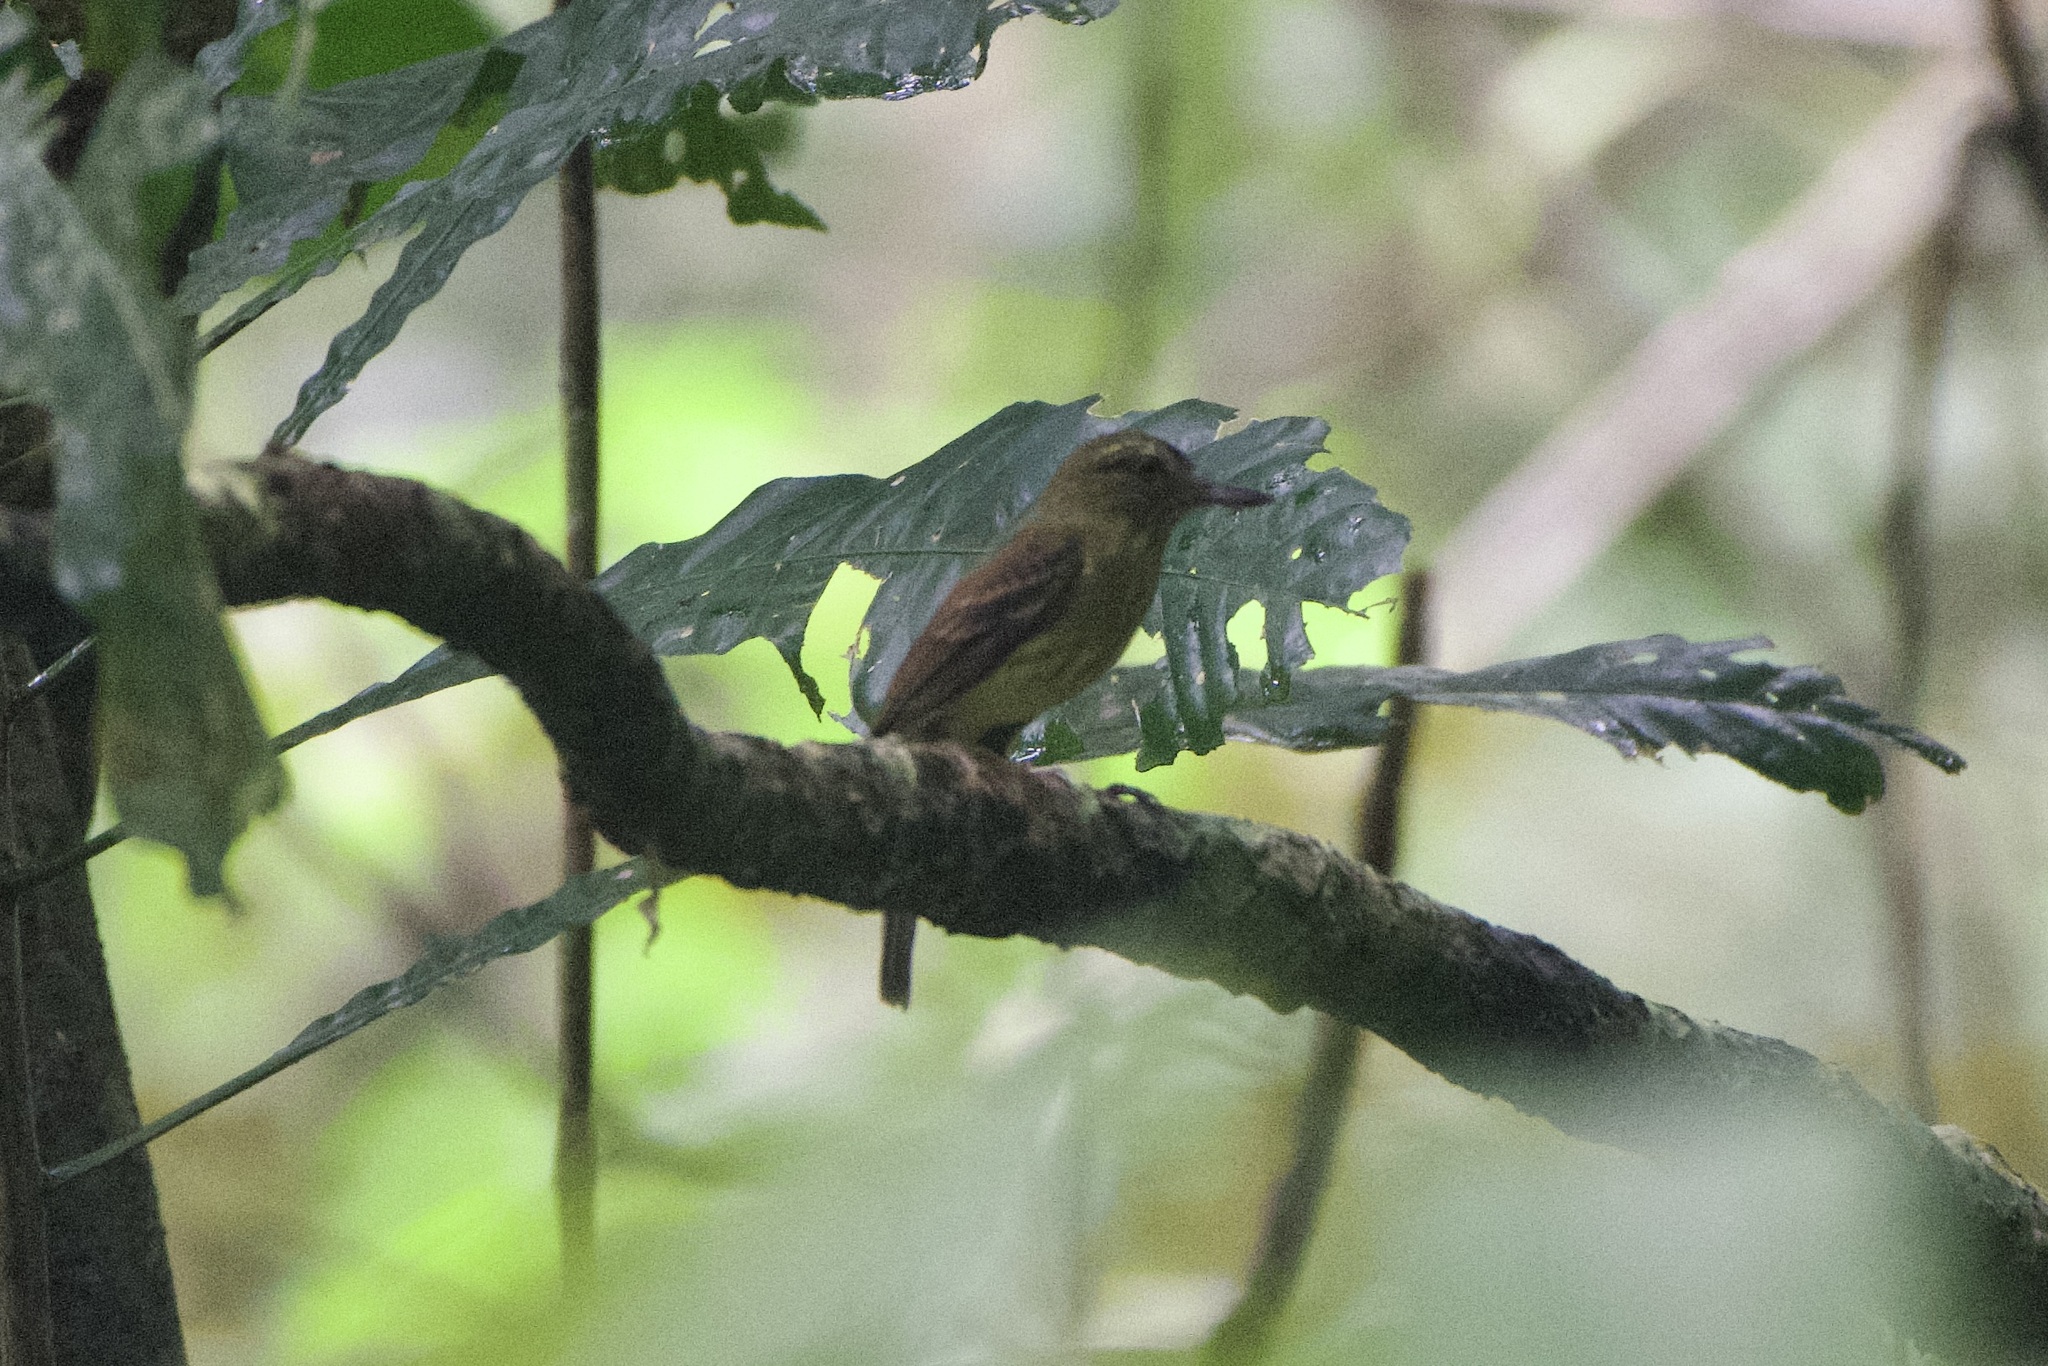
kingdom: Animalia
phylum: Chordata
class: Aves
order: Passeriformes
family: Tyrannidae
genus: Attila
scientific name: Attila spadiceus
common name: Bright-rumped attila
